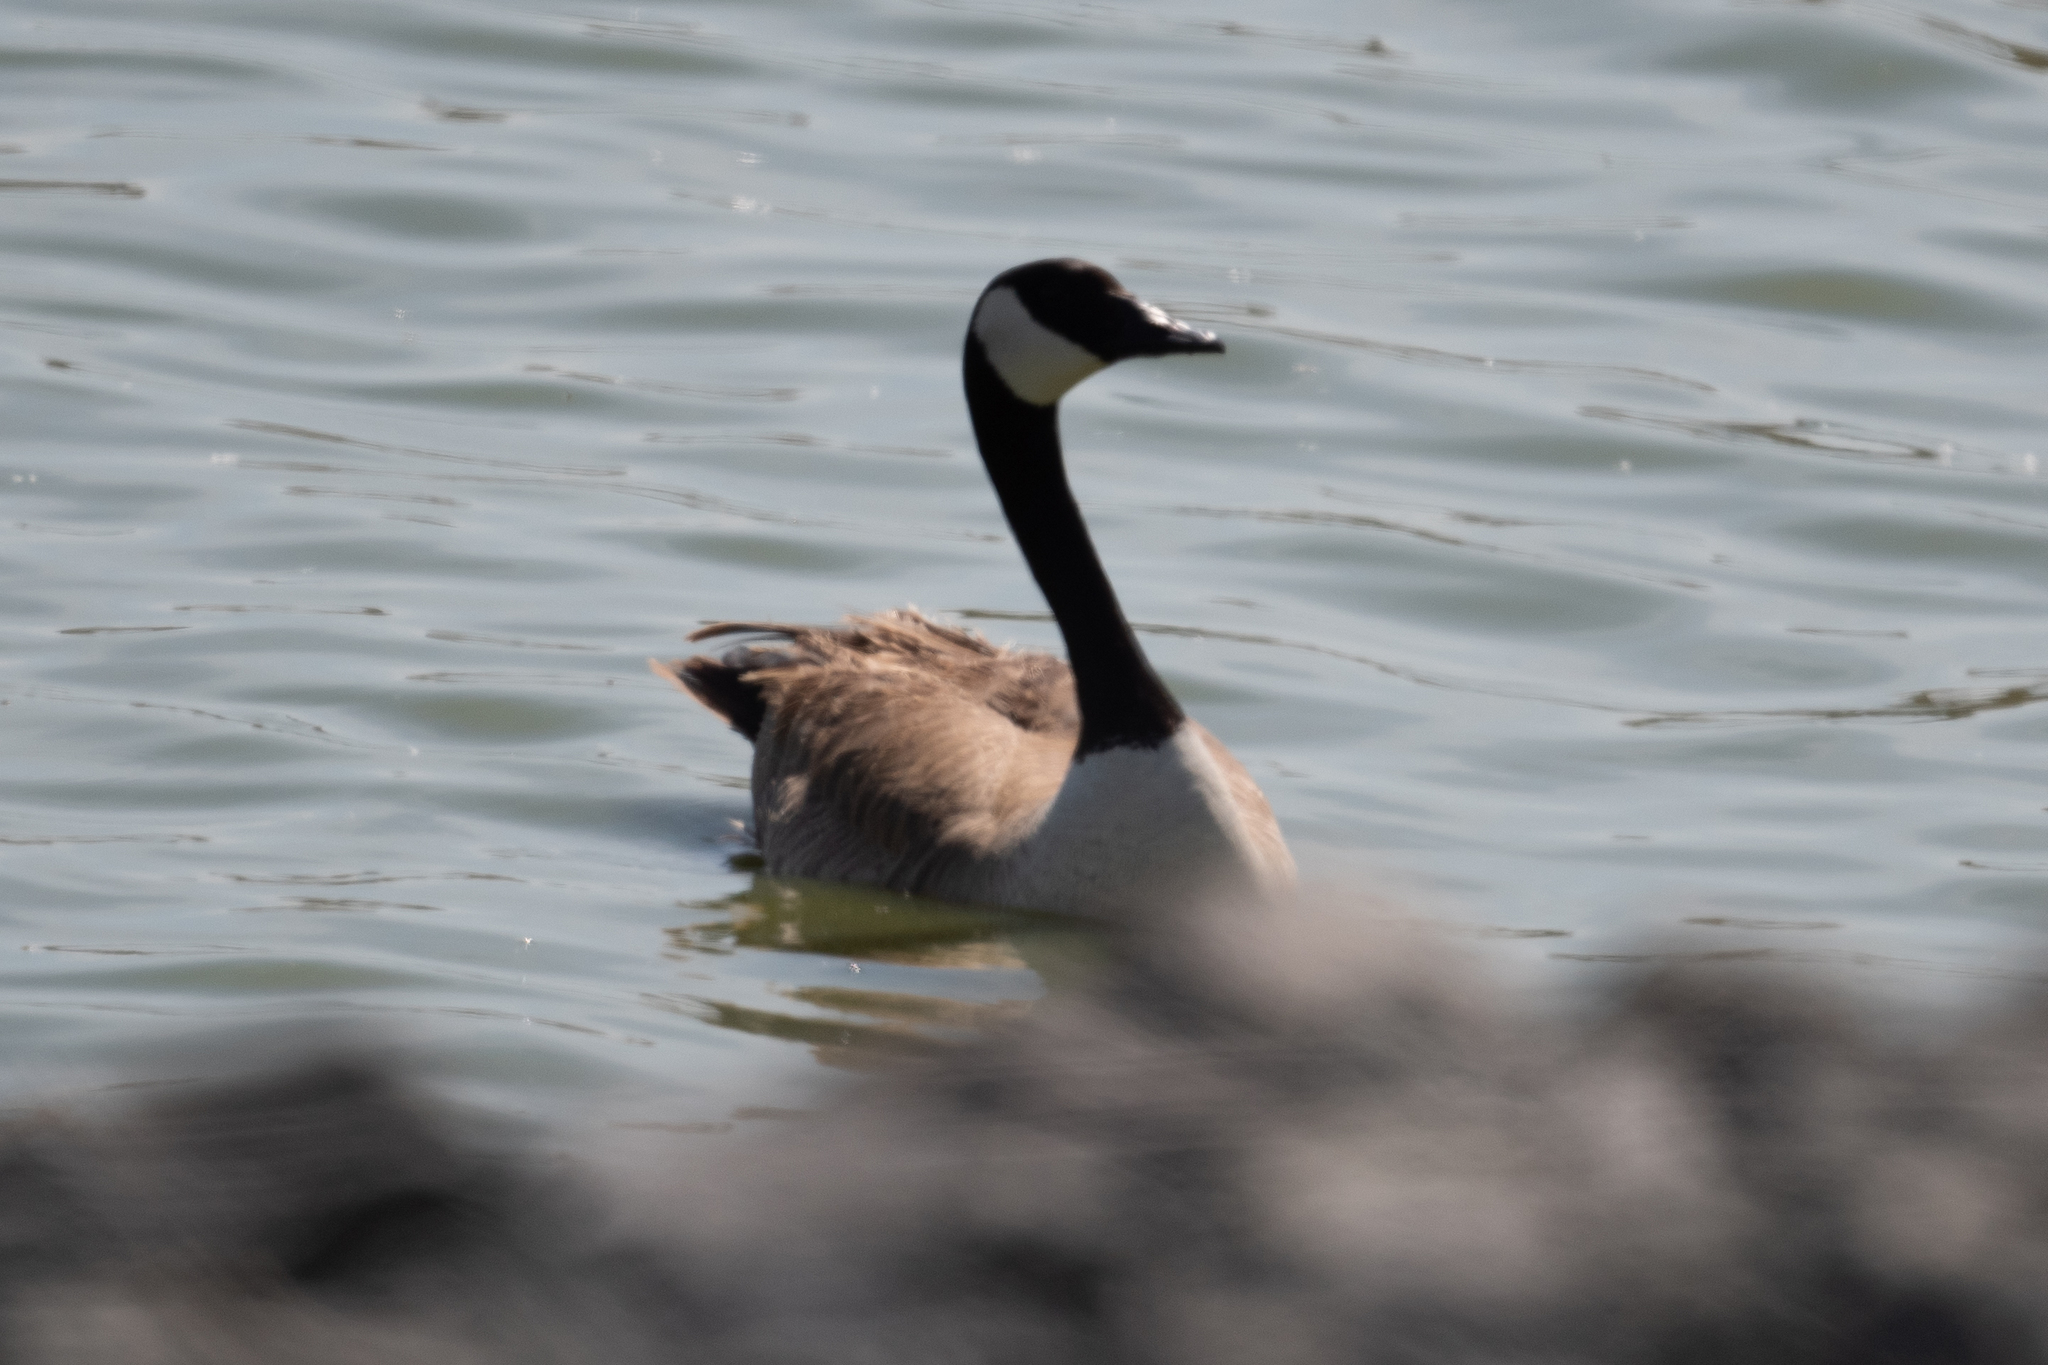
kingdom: Animalia
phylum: Chordata
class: Aves
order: Anseriformes
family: Anatidae
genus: Branta
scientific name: Branta canadensis
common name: Canada goose
